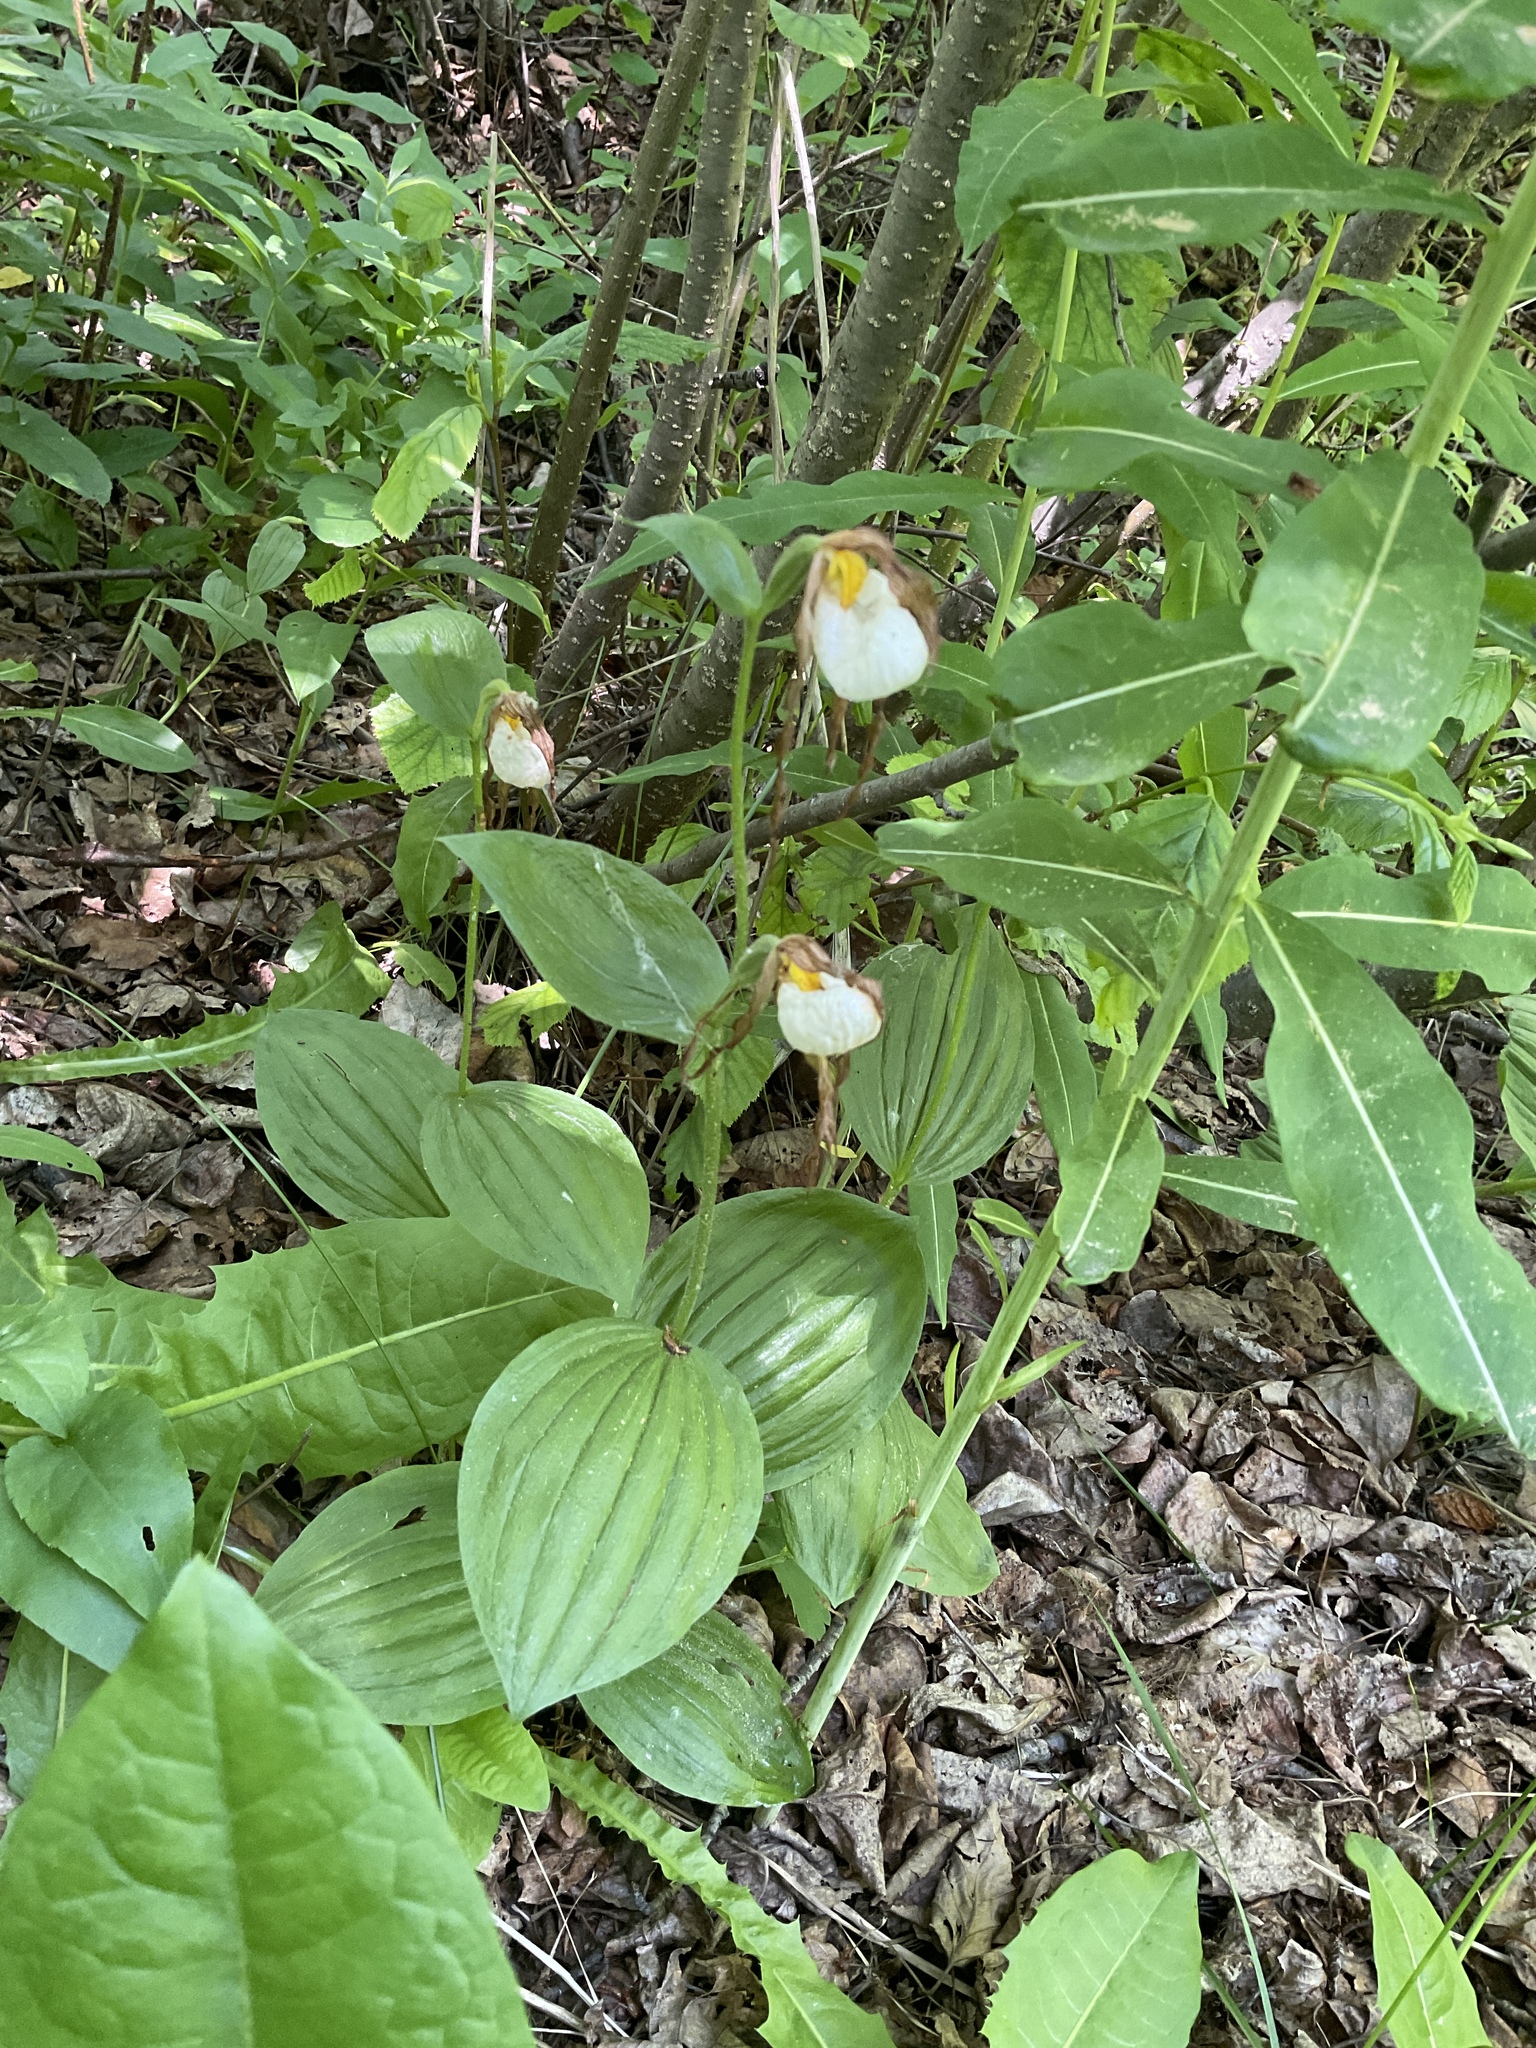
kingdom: Plantae
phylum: Tracheophyta
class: Liliopsida
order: Asparagales
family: Orchidaceae
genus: Cypripedium
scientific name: Cypripedium montanum
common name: Mountain lady's-slipper
